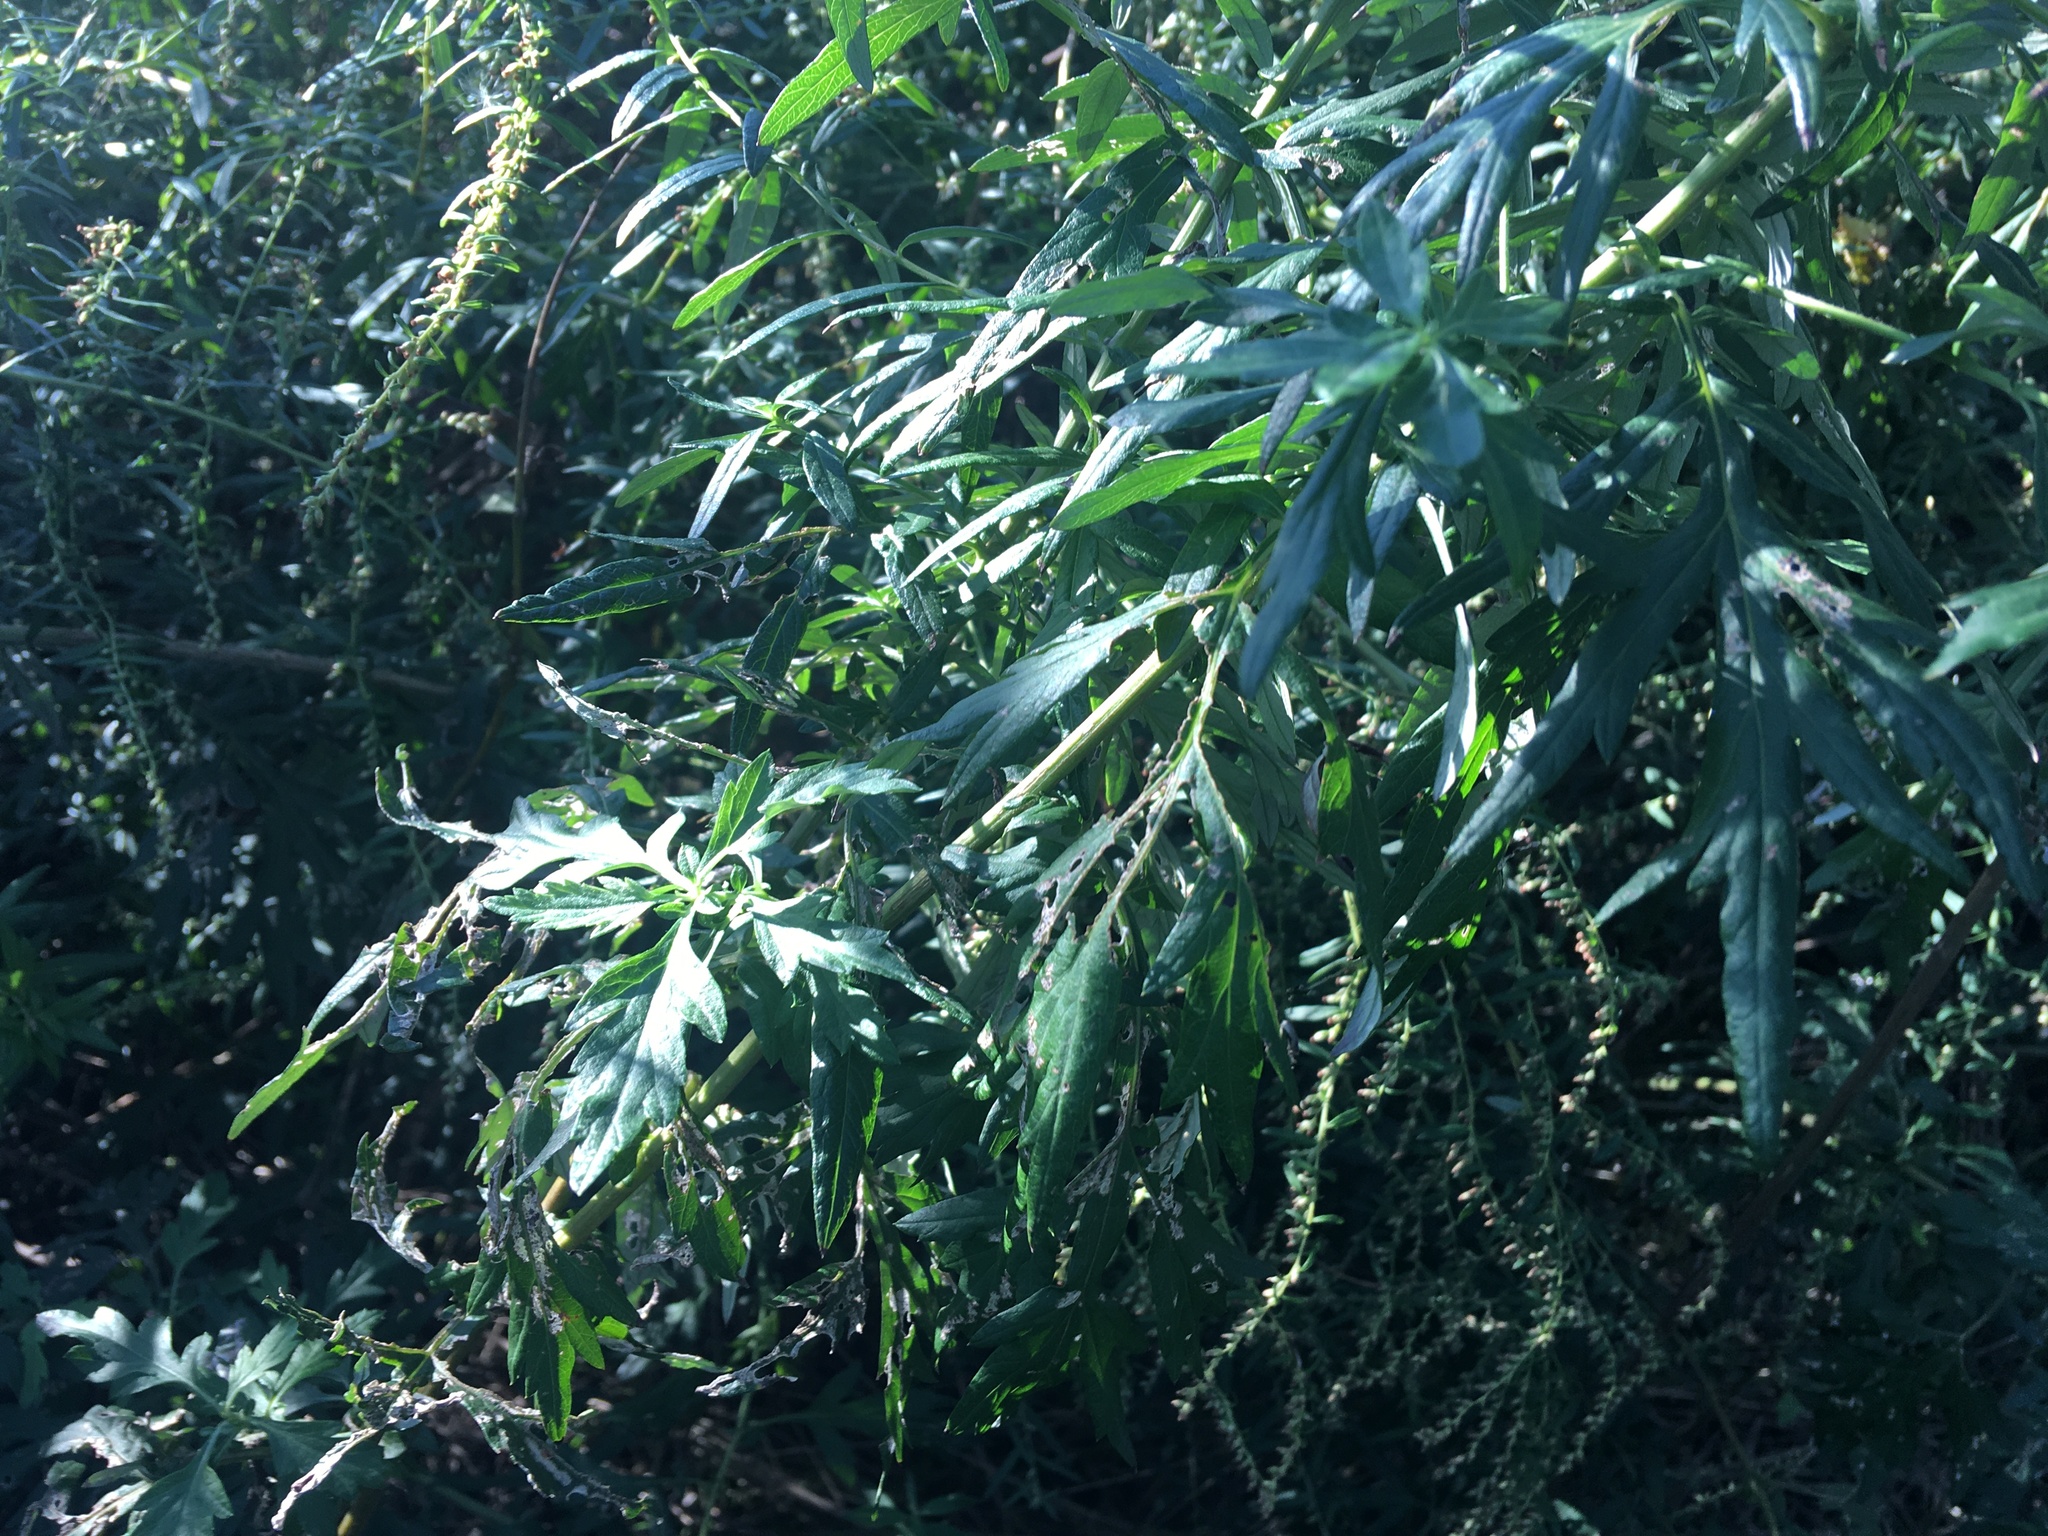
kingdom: Plantae
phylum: Tracheophyta
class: Magnoliopsida
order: Asterales
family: Asteraceae
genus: Artemisia
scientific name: Artemisia vulgaris
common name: Mugwort
